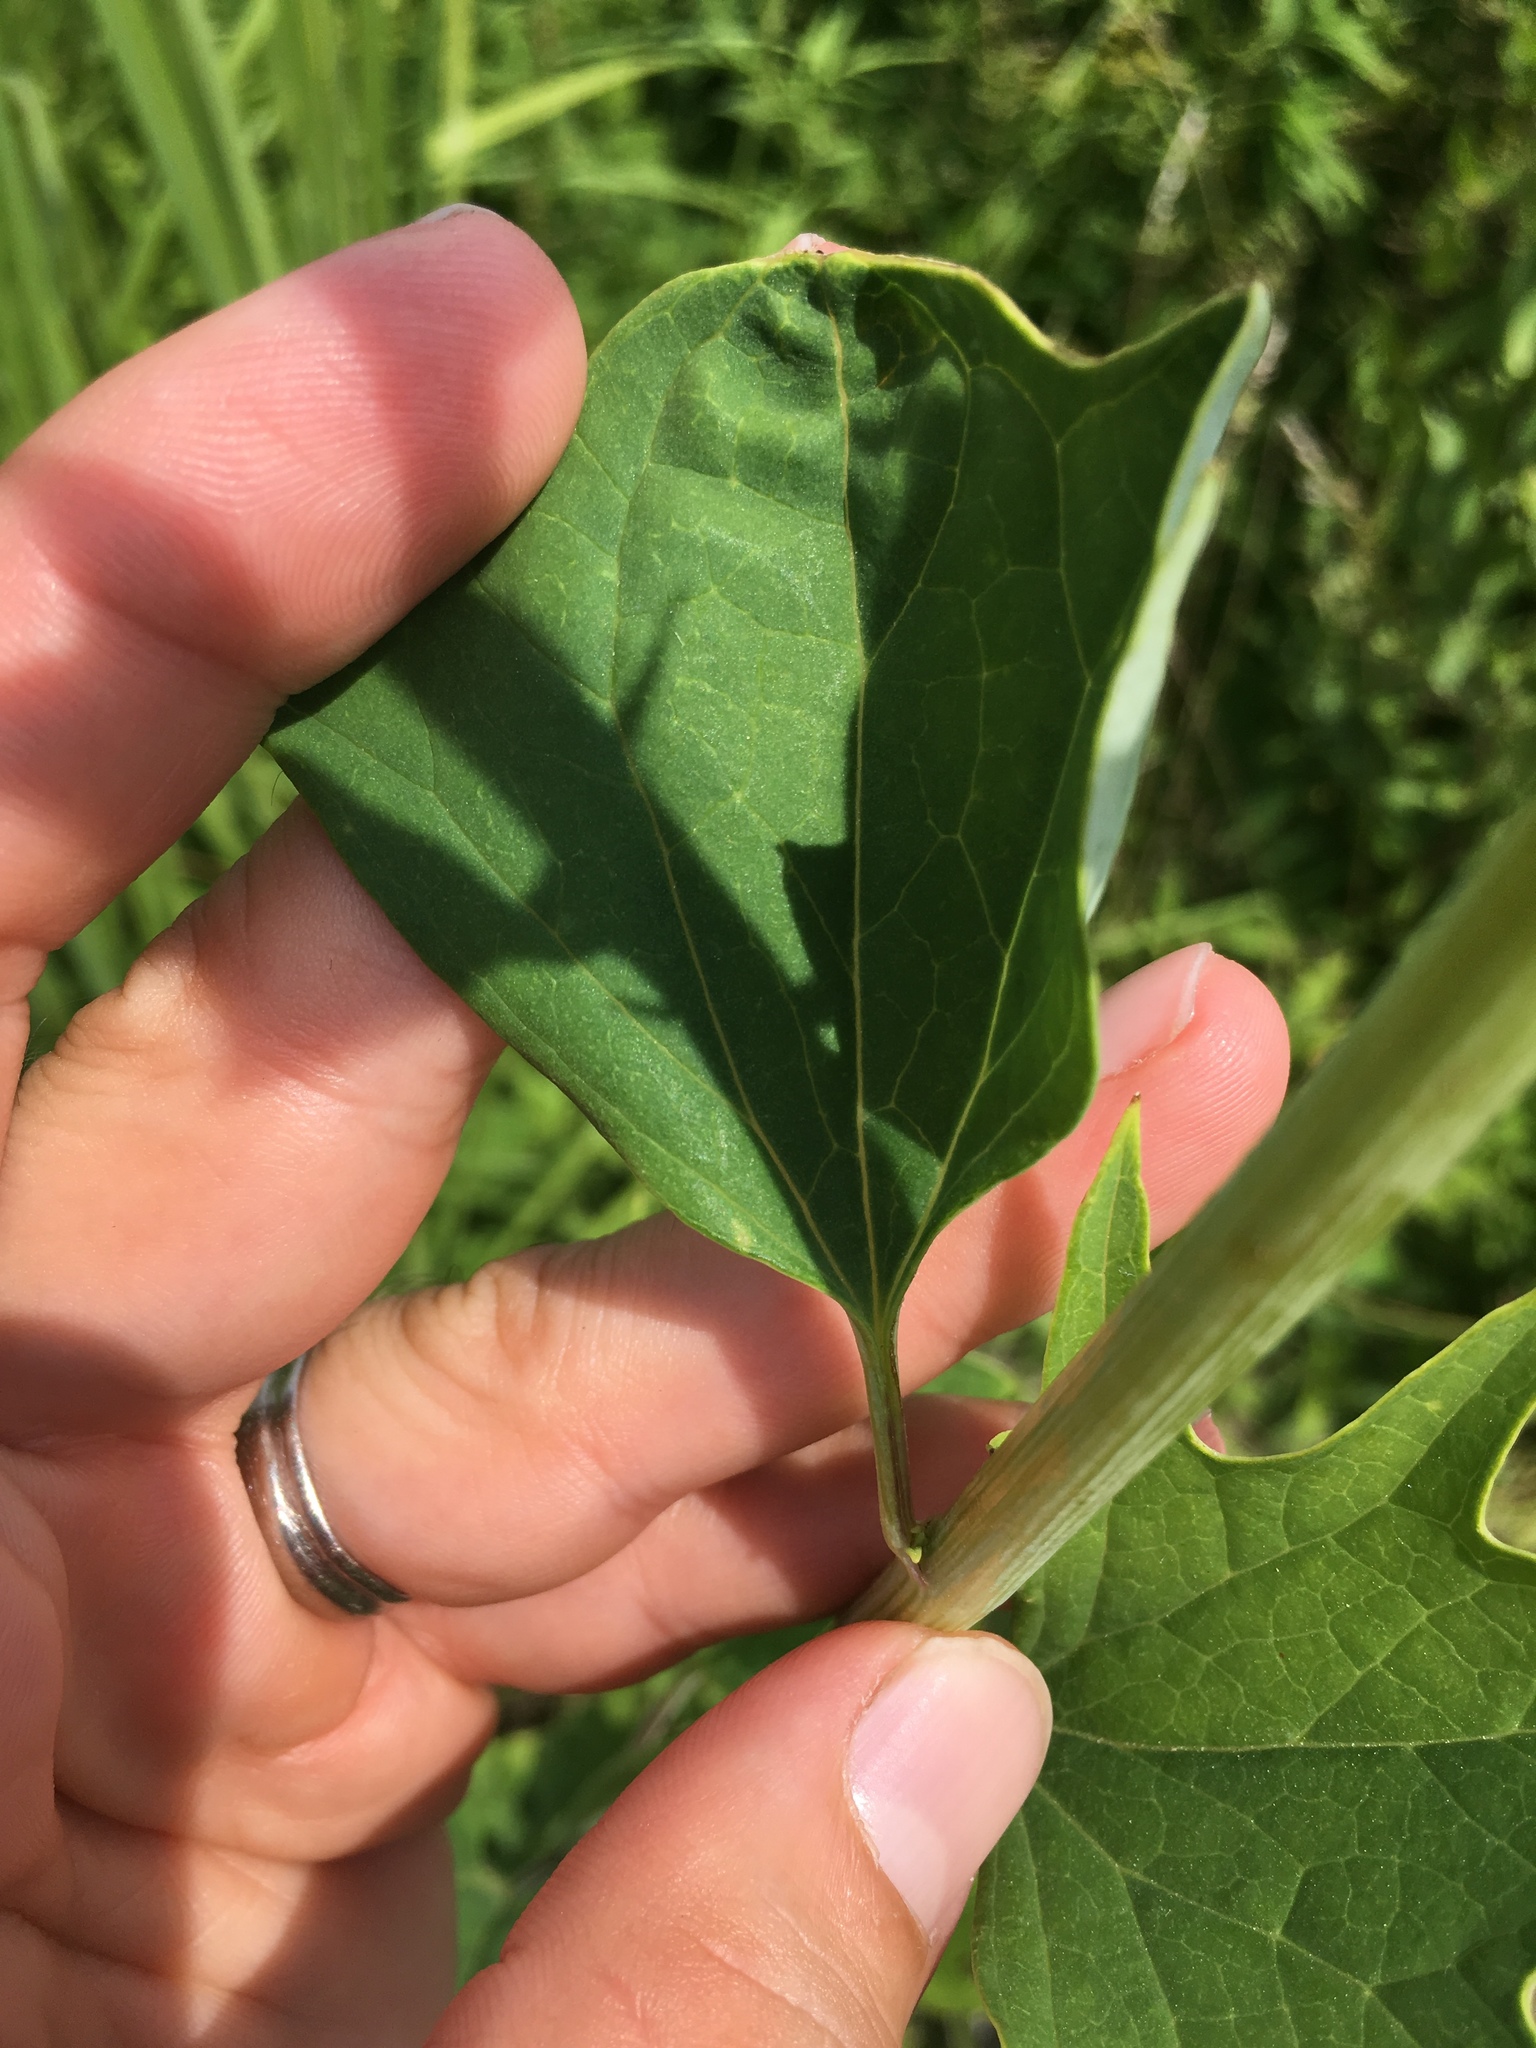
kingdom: Plantae
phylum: Tracheophyta
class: Magnoliopsida
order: Asterales
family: Asteraceae
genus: Arnoglossum
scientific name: Arnoglossum atriplicifolium
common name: Pale indian-plantain
